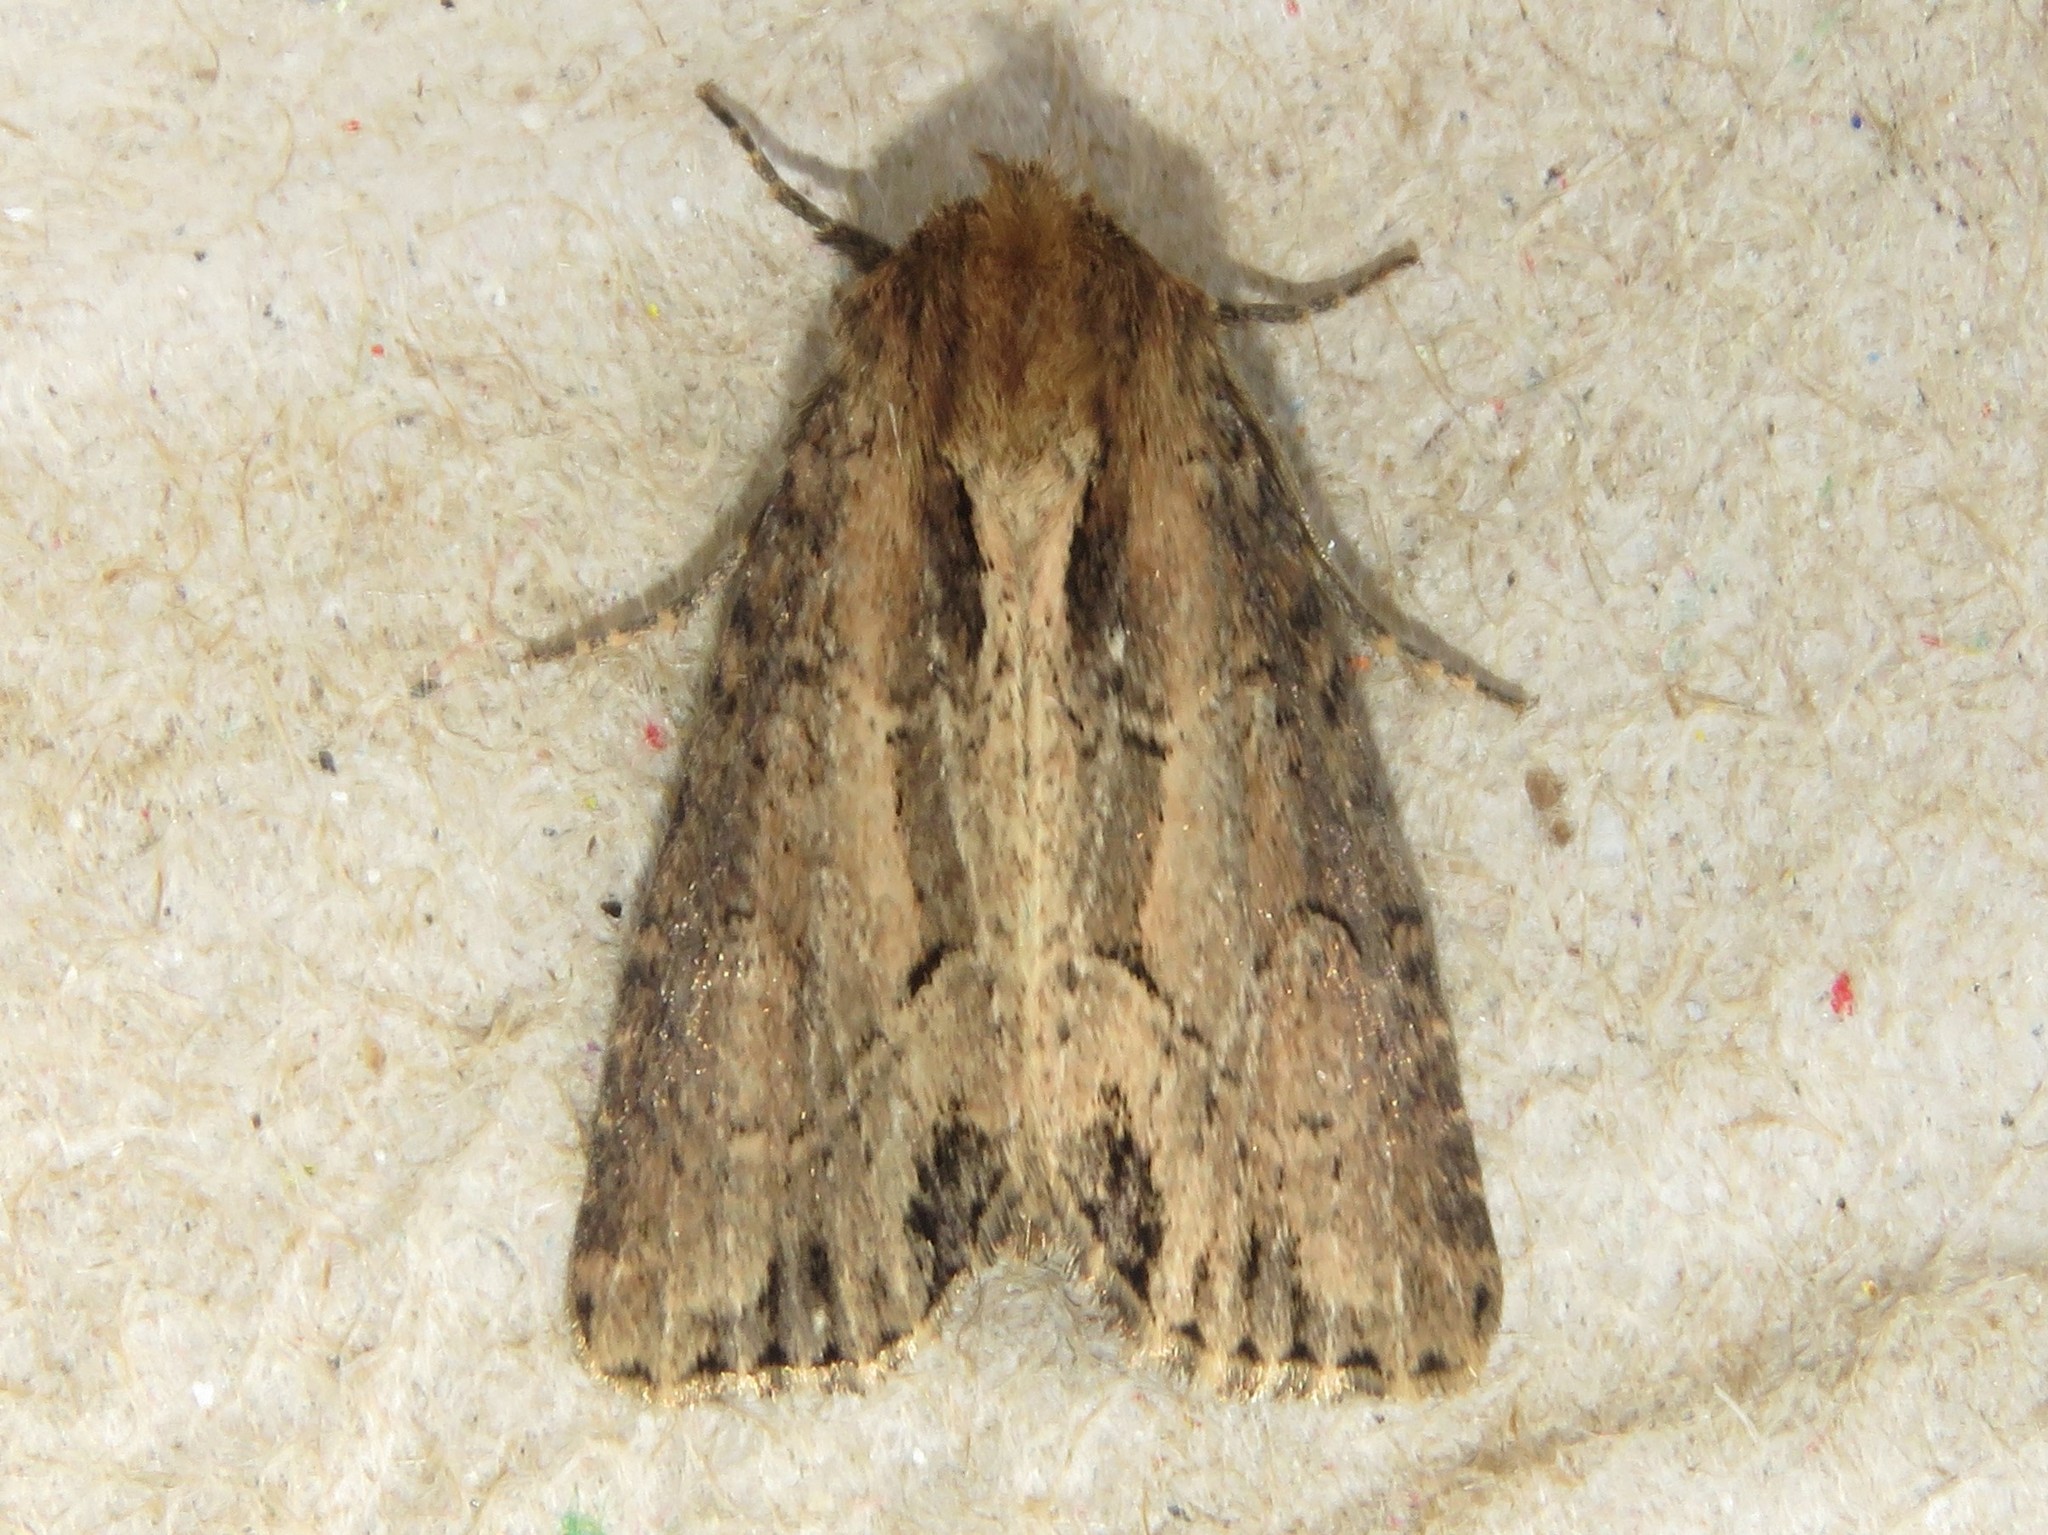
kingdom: Animalia
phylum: Arthropoda
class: Insecta
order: Lepidoptera
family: Noctuidae
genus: Xylomoia
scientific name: Xylomoia chagnoni
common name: Reed canary grass borer moth
